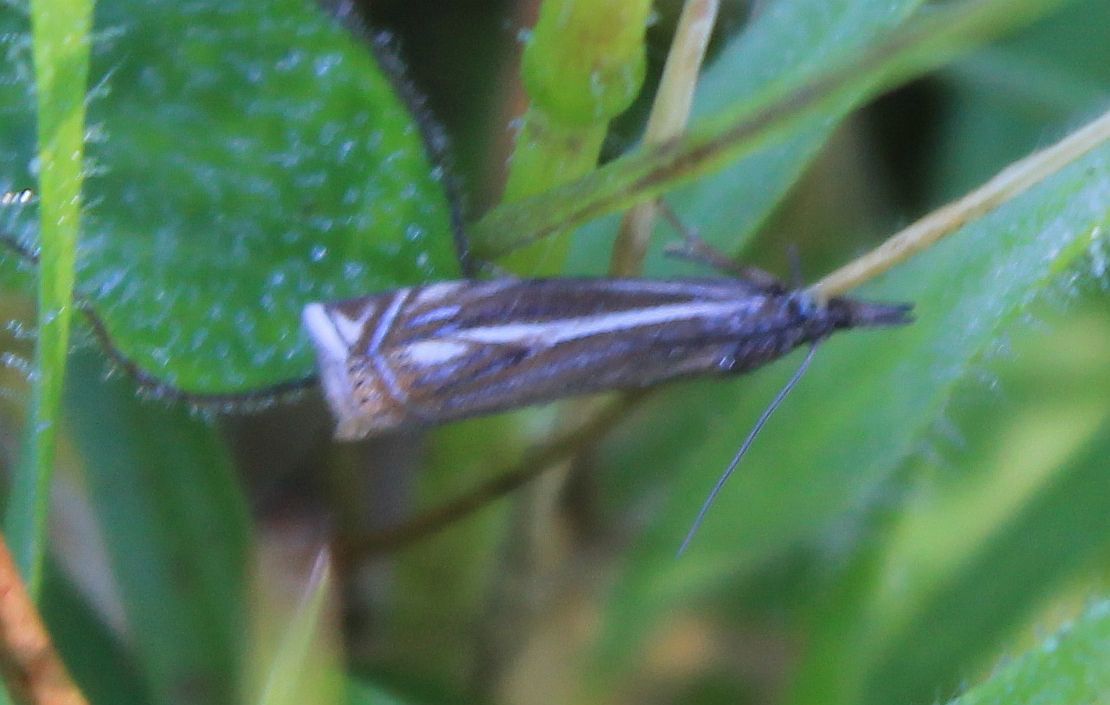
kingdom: Animalia
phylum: Arthropoda
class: Insecta
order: Lepidoptera
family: Crambidae
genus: Crambus
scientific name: Crambus nemorella
